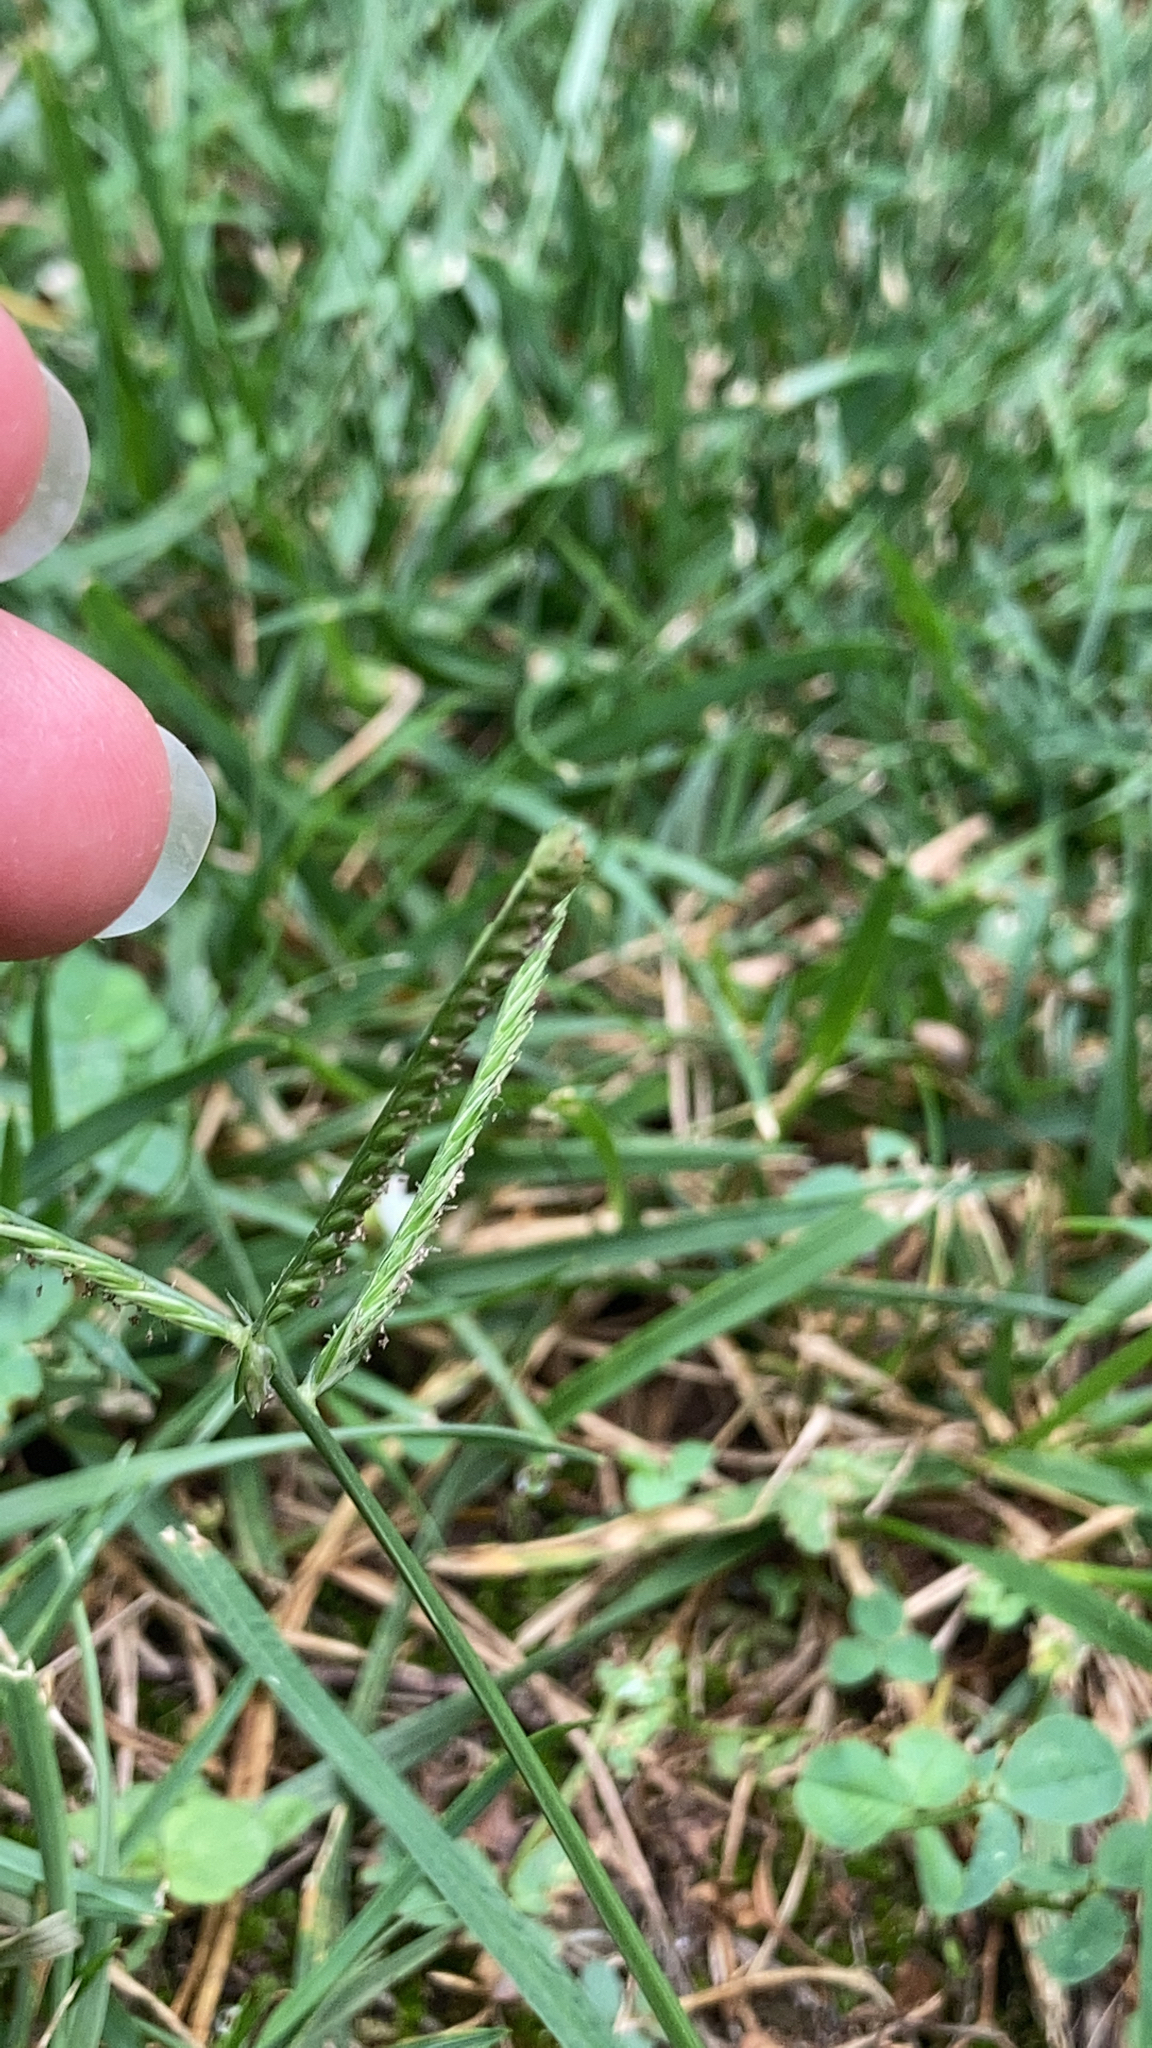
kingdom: Plantae
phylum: Tracheophyta
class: Liliopsida
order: Poales
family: Poaceae
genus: Eleusine
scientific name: Eleusine indica
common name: Yard-grass
